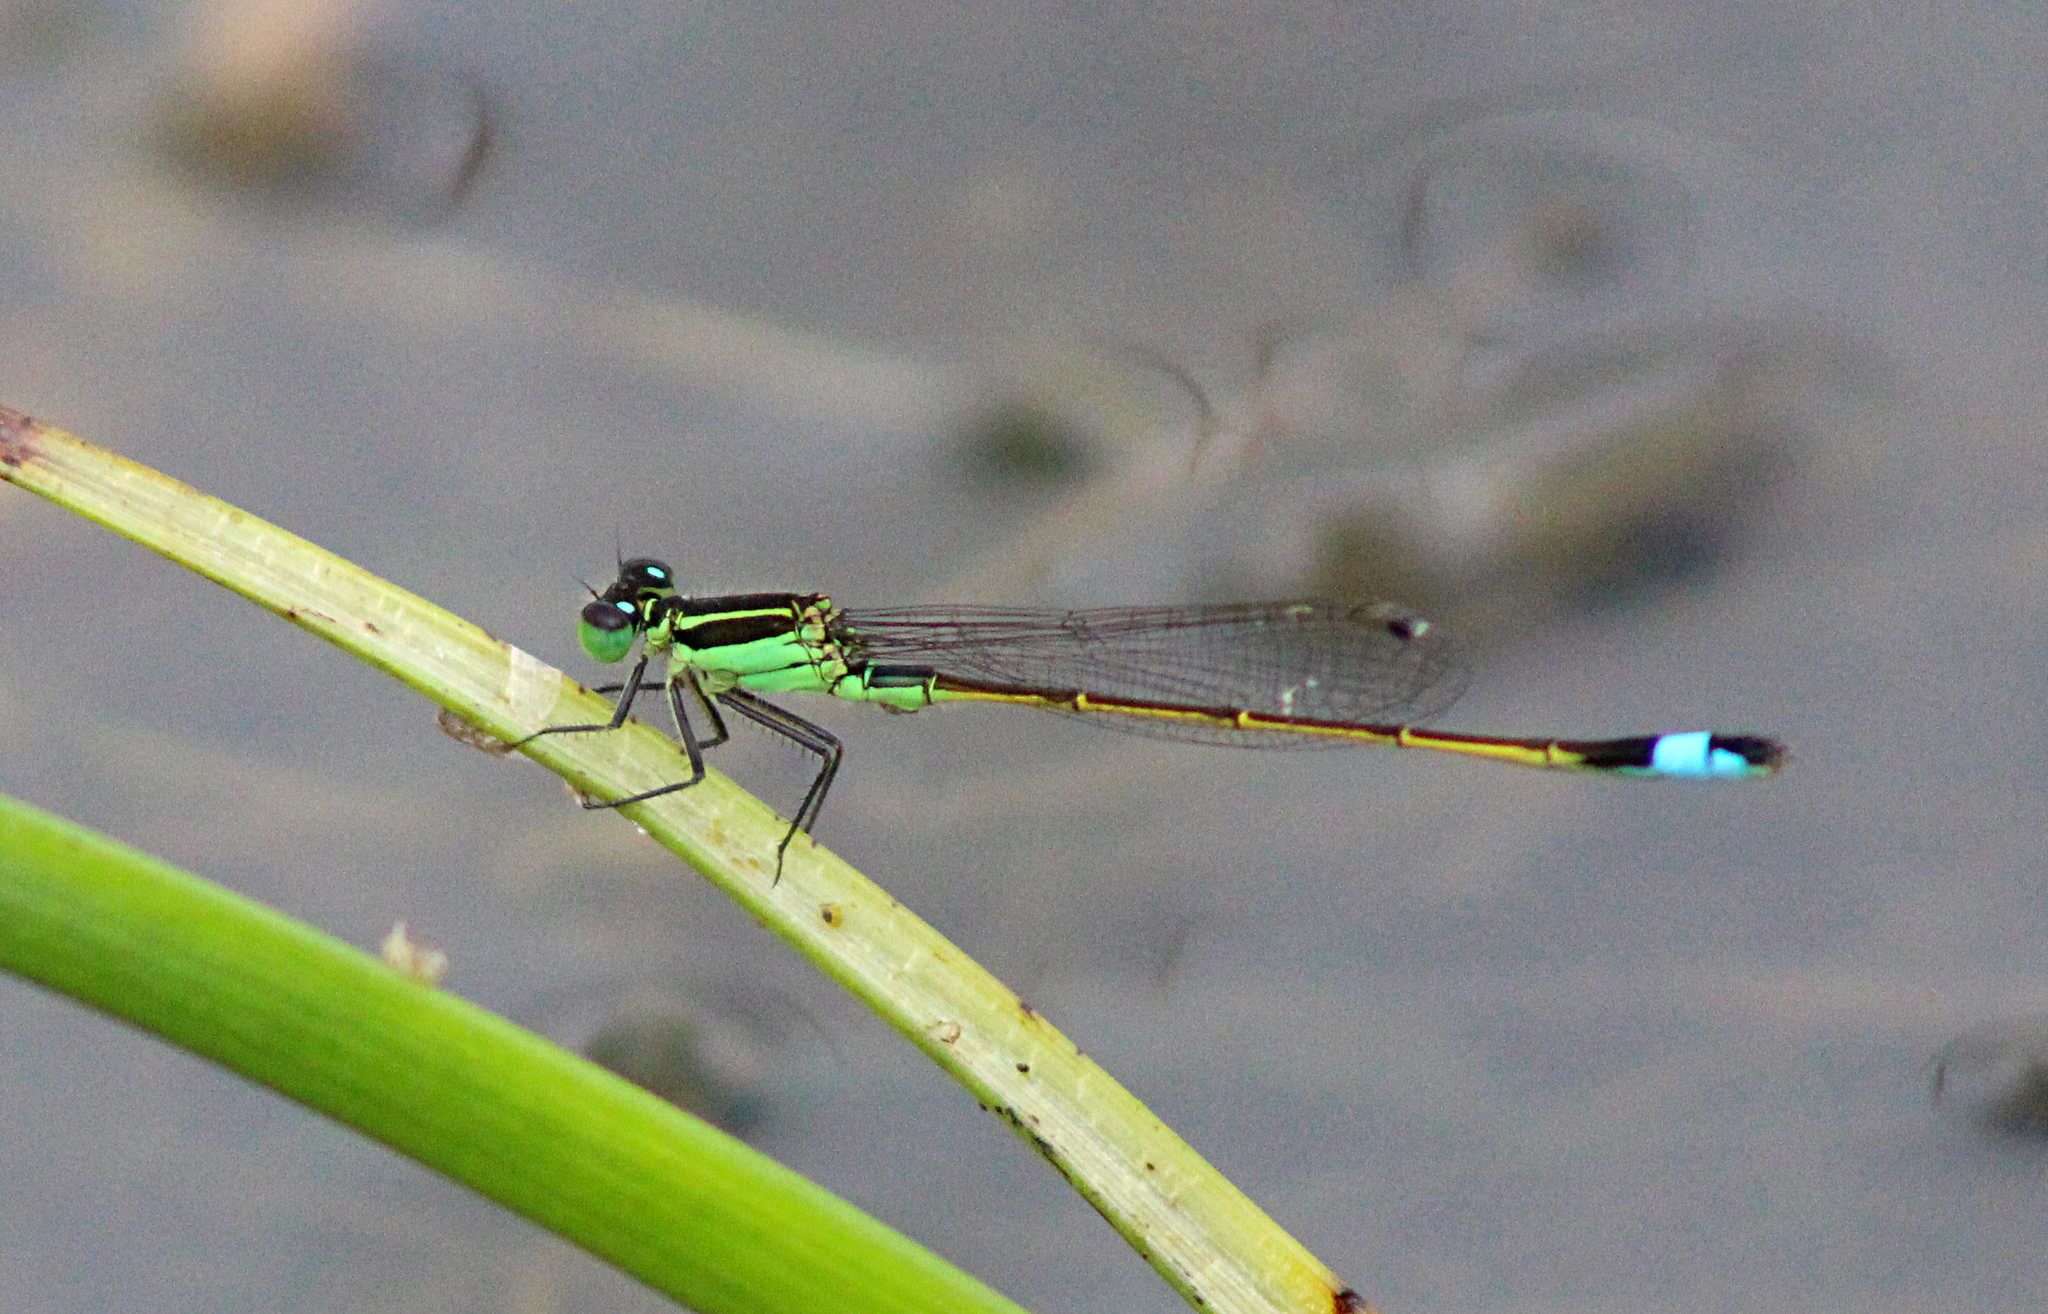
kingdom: Animalia
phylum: Arthropoda
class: Insecta
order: Odonata
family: Coenagrionidae
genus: Ischnura
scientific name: Ischnura ramburii
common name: Rambur's forktail
